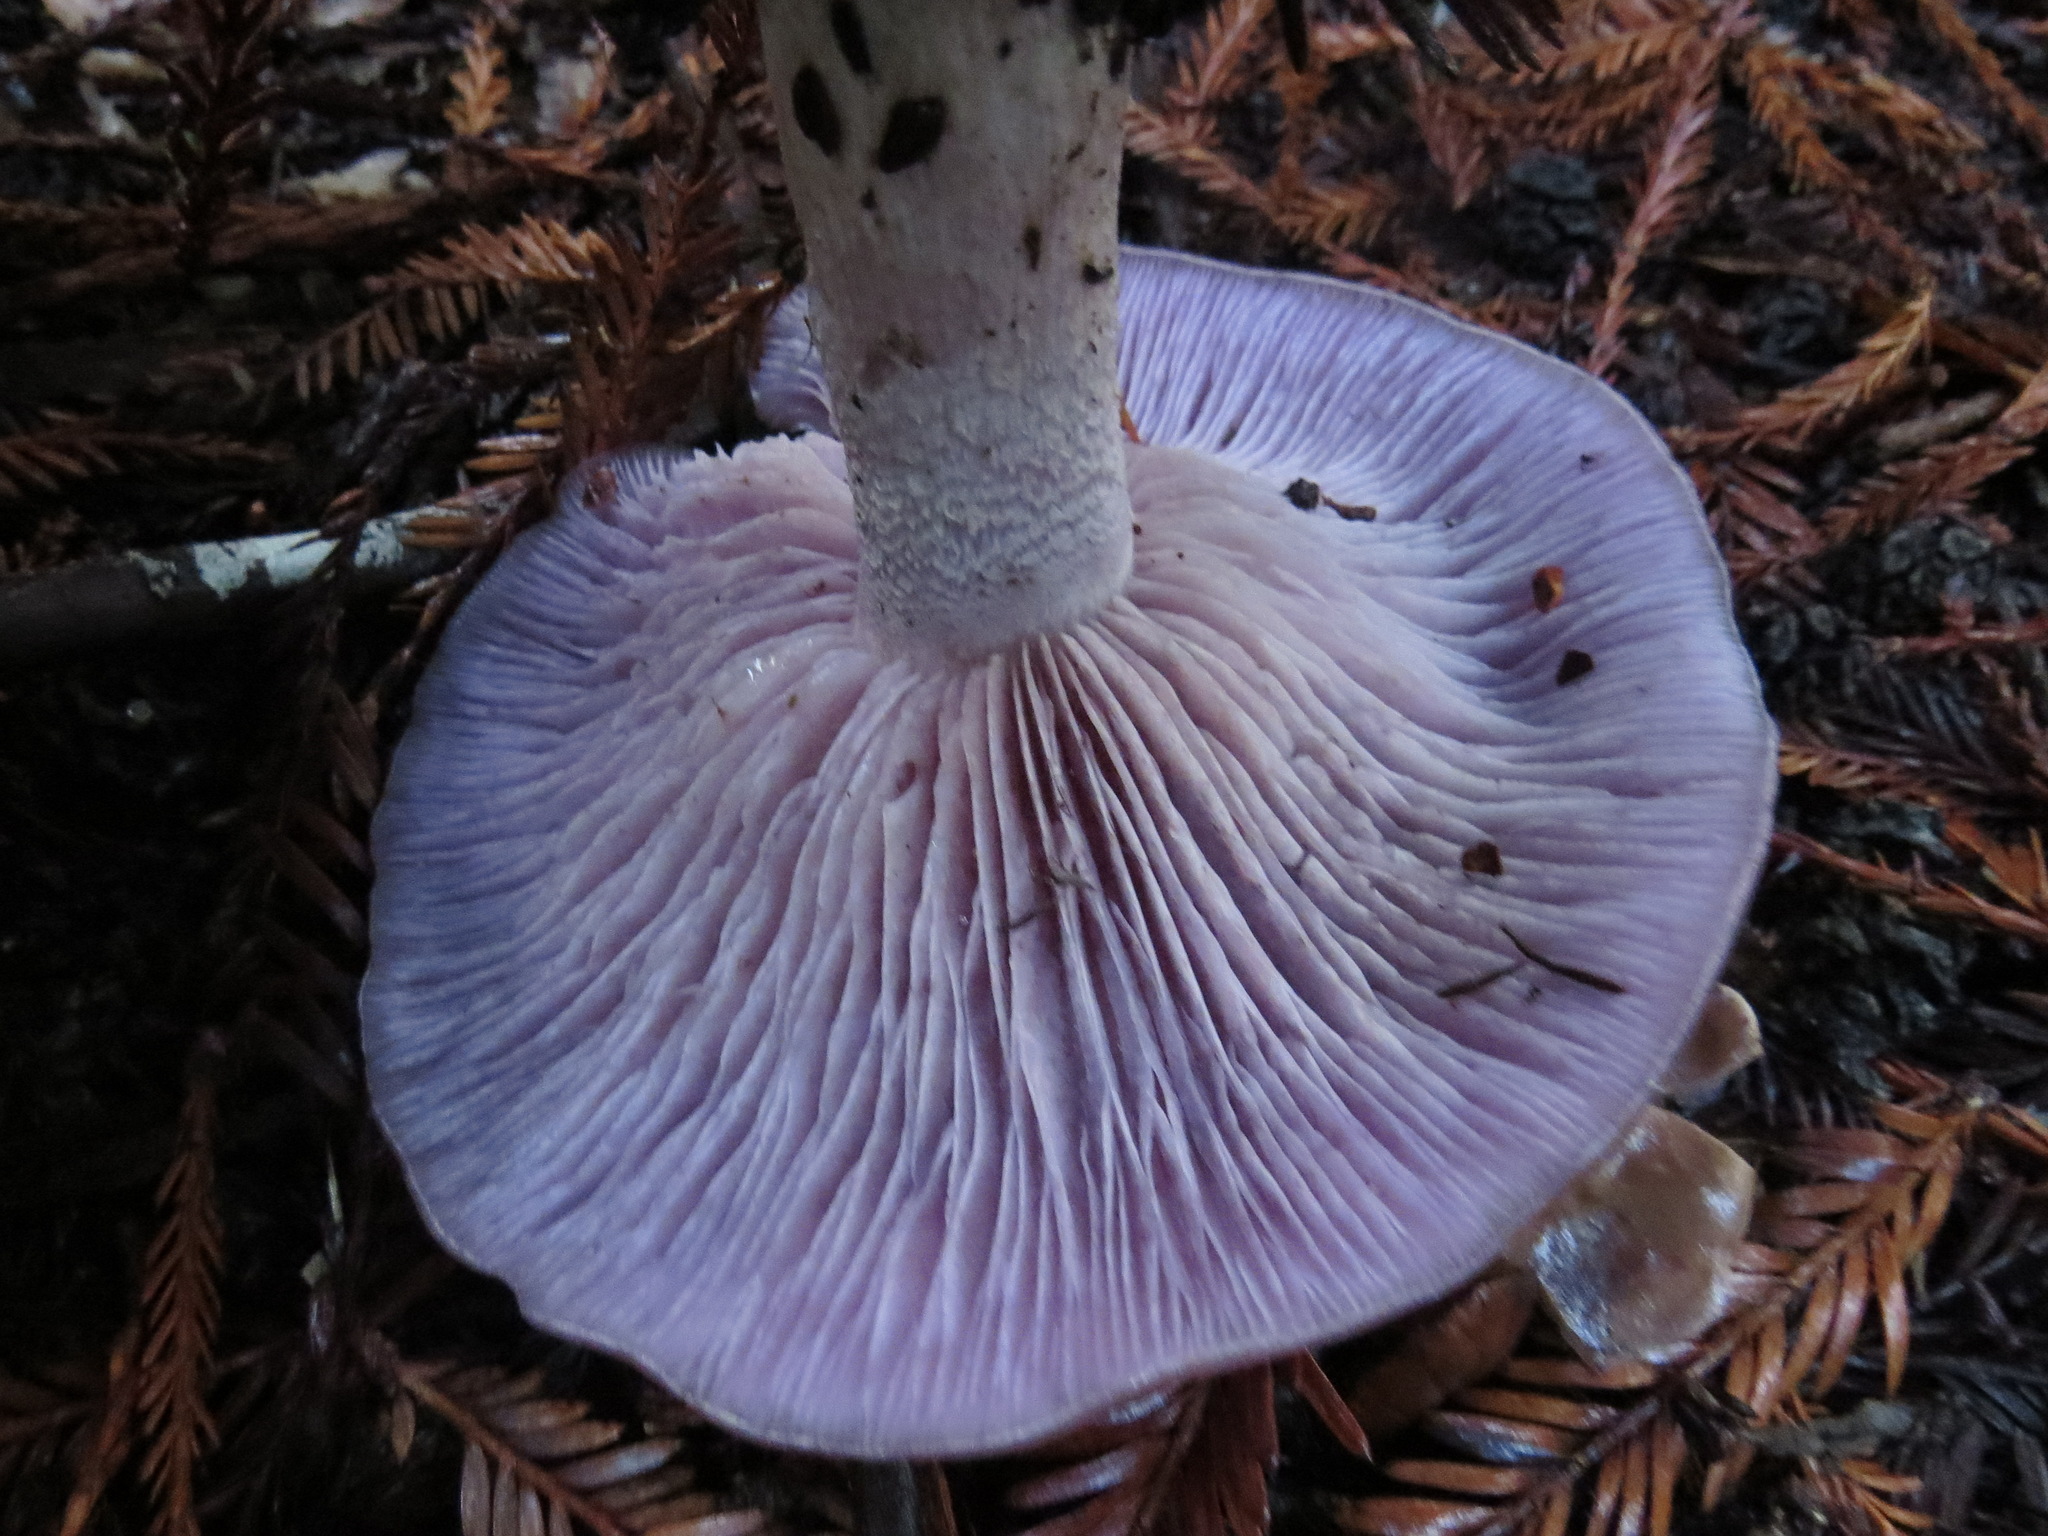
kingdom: Fungi
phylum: Basidiomycota
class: Agaricomycetes
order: Agaricales
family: Tricholomataceae
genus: Collybia
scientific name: Collybia
